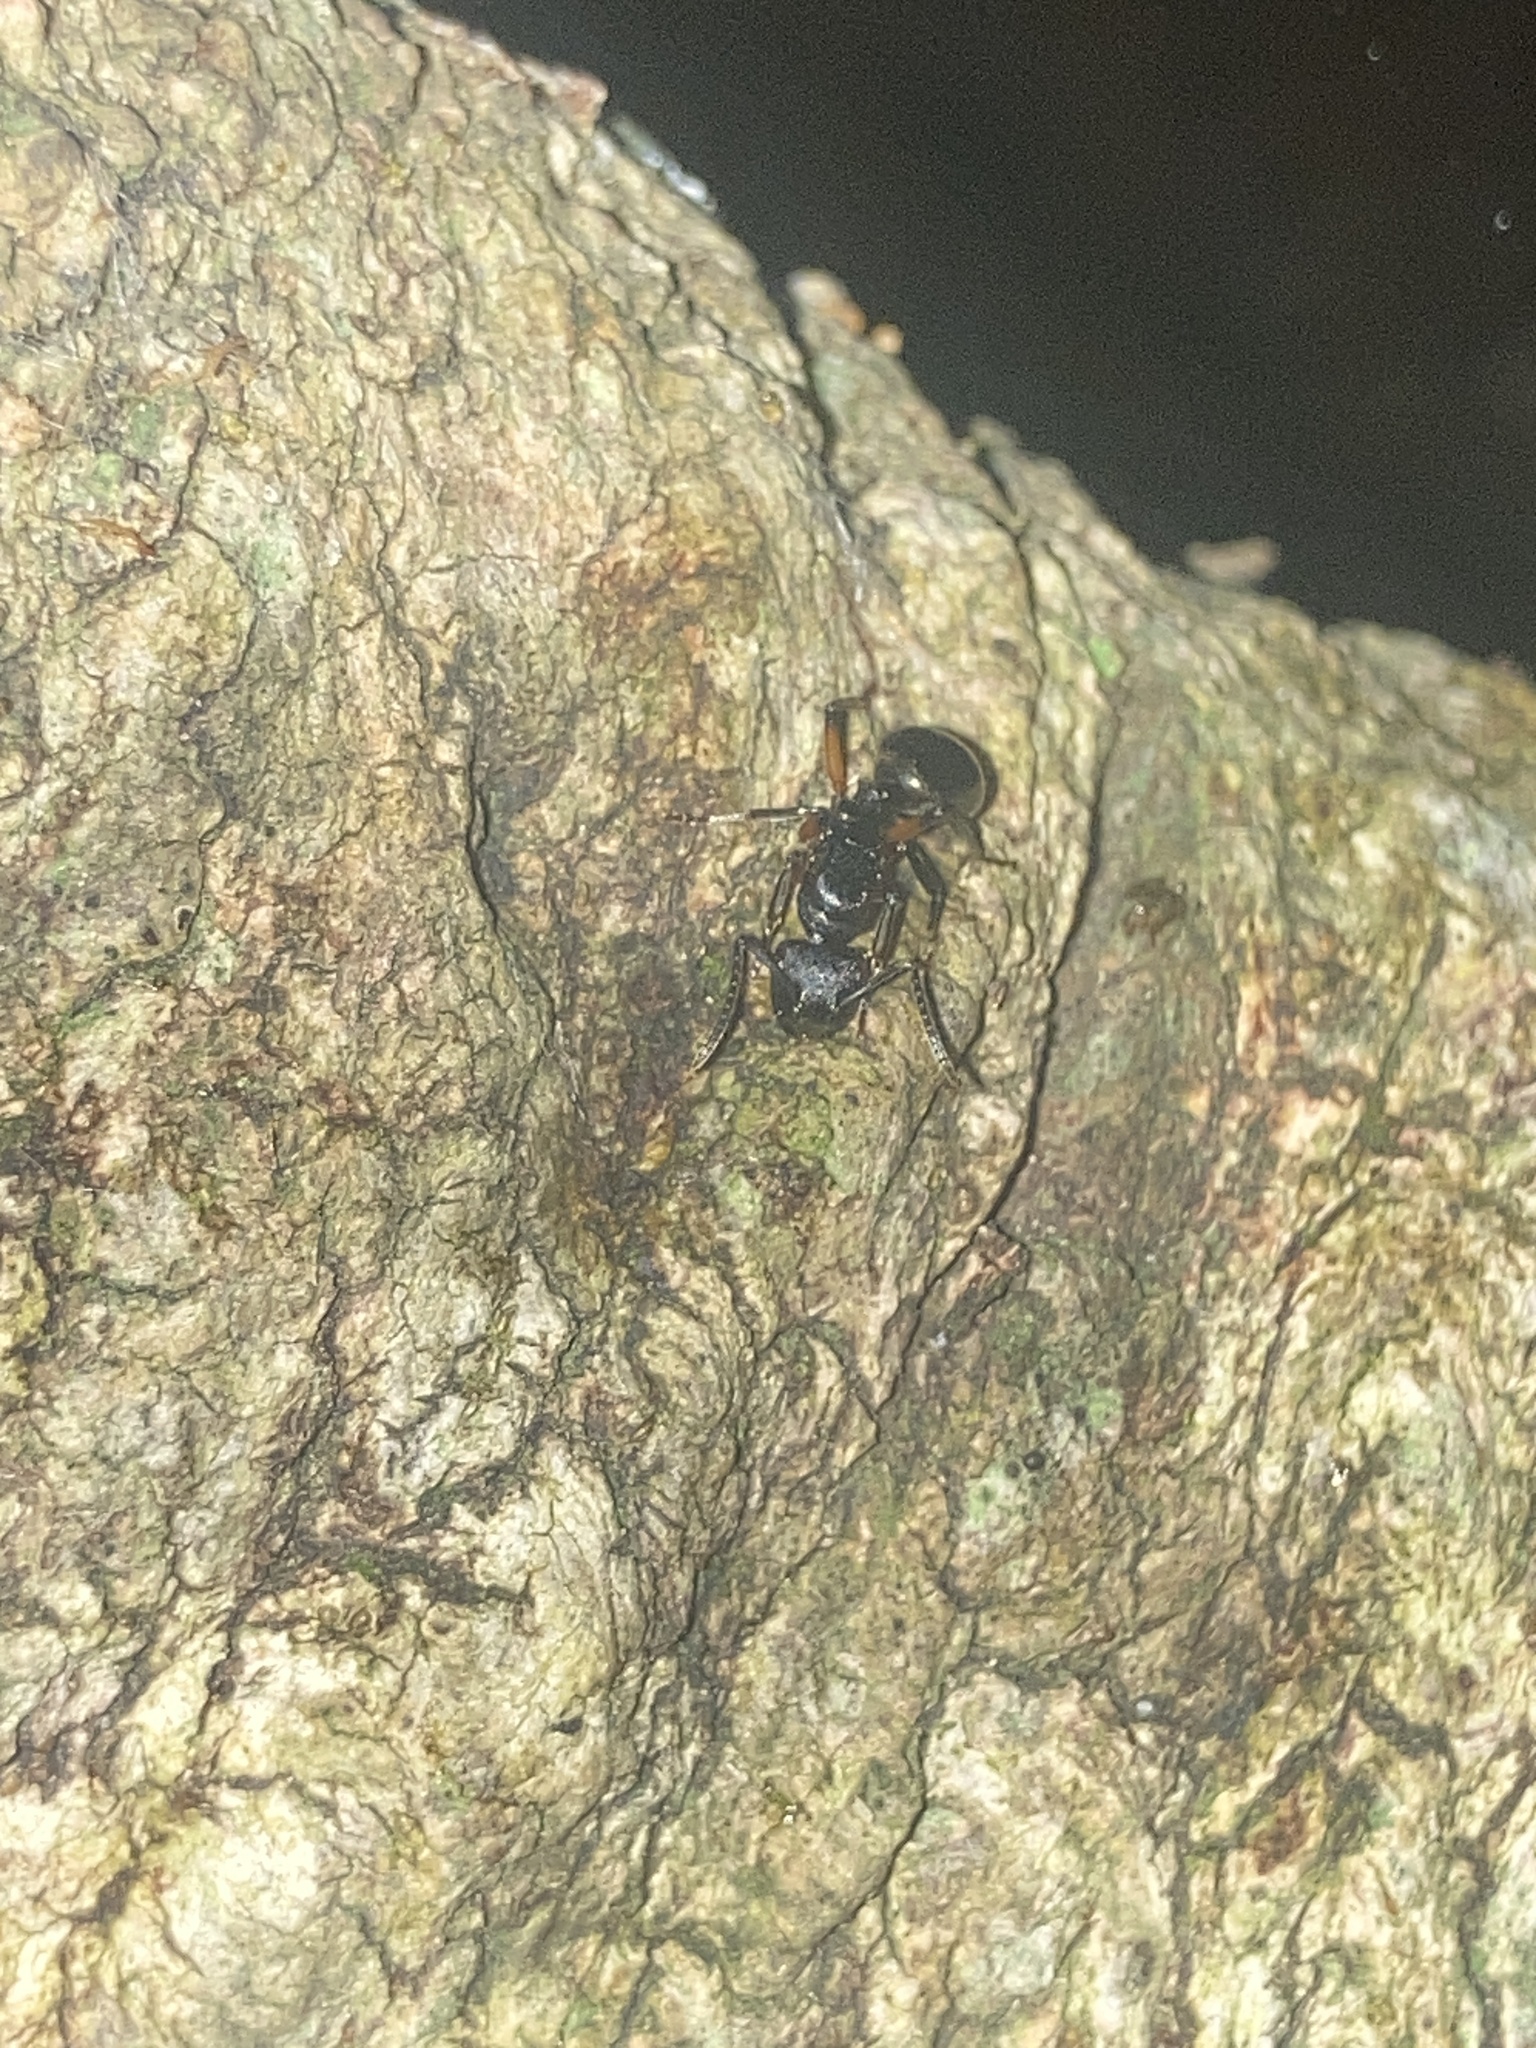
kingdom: Animalia
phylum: Arthropoda
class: Insecta
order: Hymenoptera
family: Formicidae
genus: Polyrhachis
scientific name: Polyrhachis femorata
